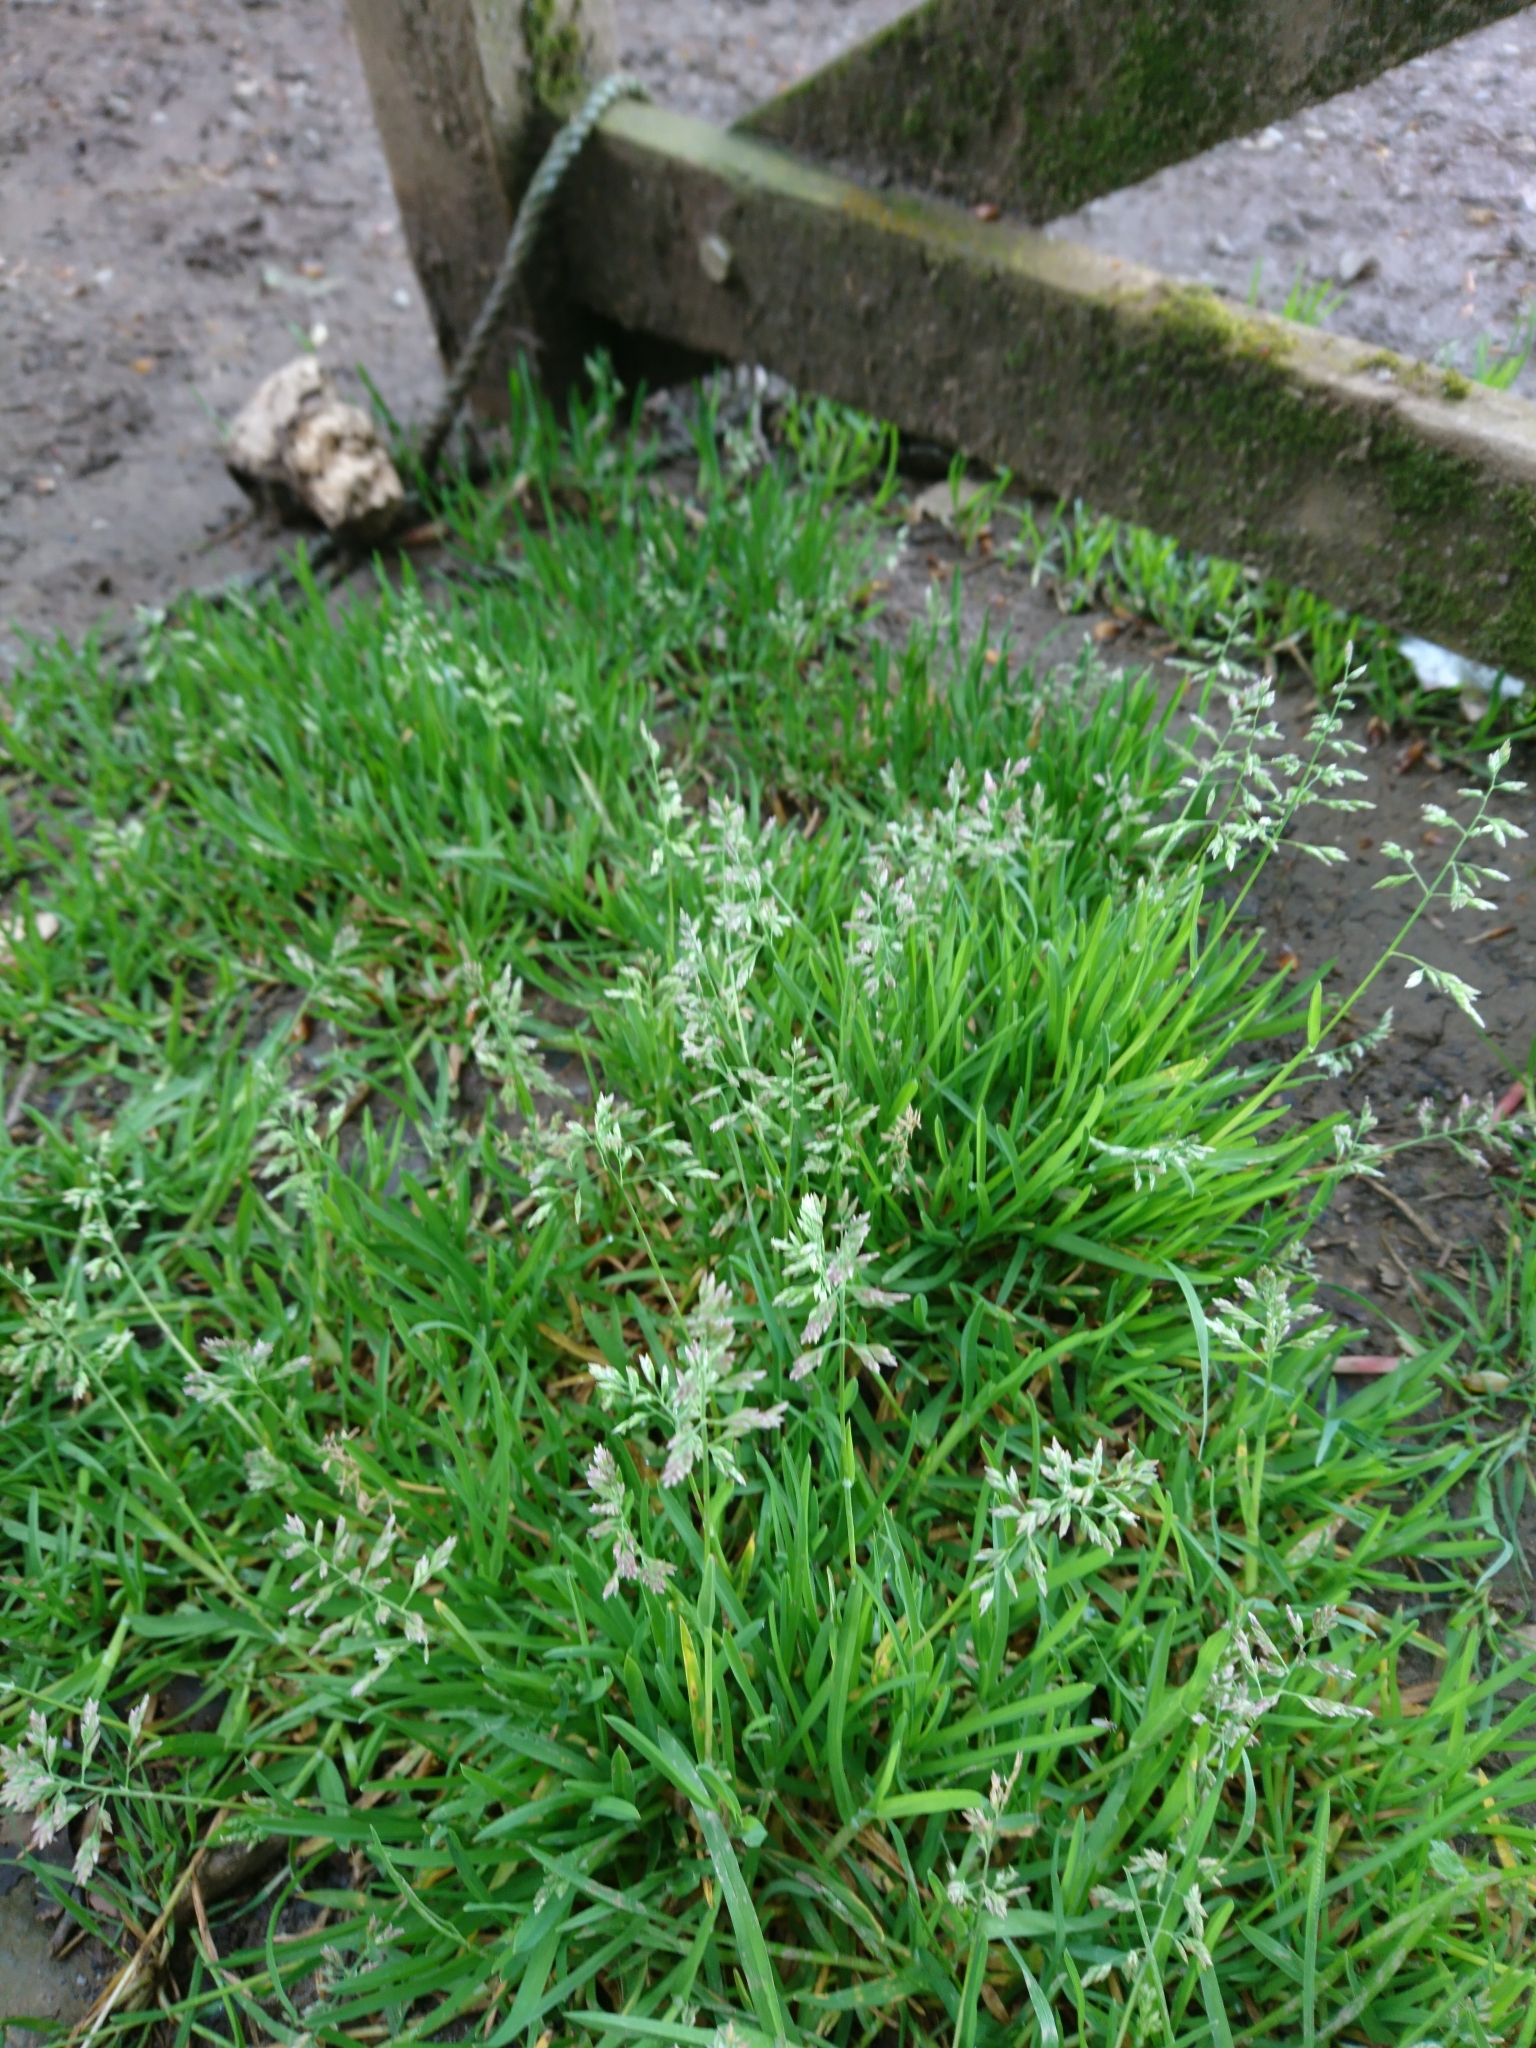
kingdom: Plantae
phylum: Tracheophyta
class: Liliopsida
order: Poales
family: Poaceae
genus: Poa
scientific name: Poa annua
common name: Annual bluegrass
